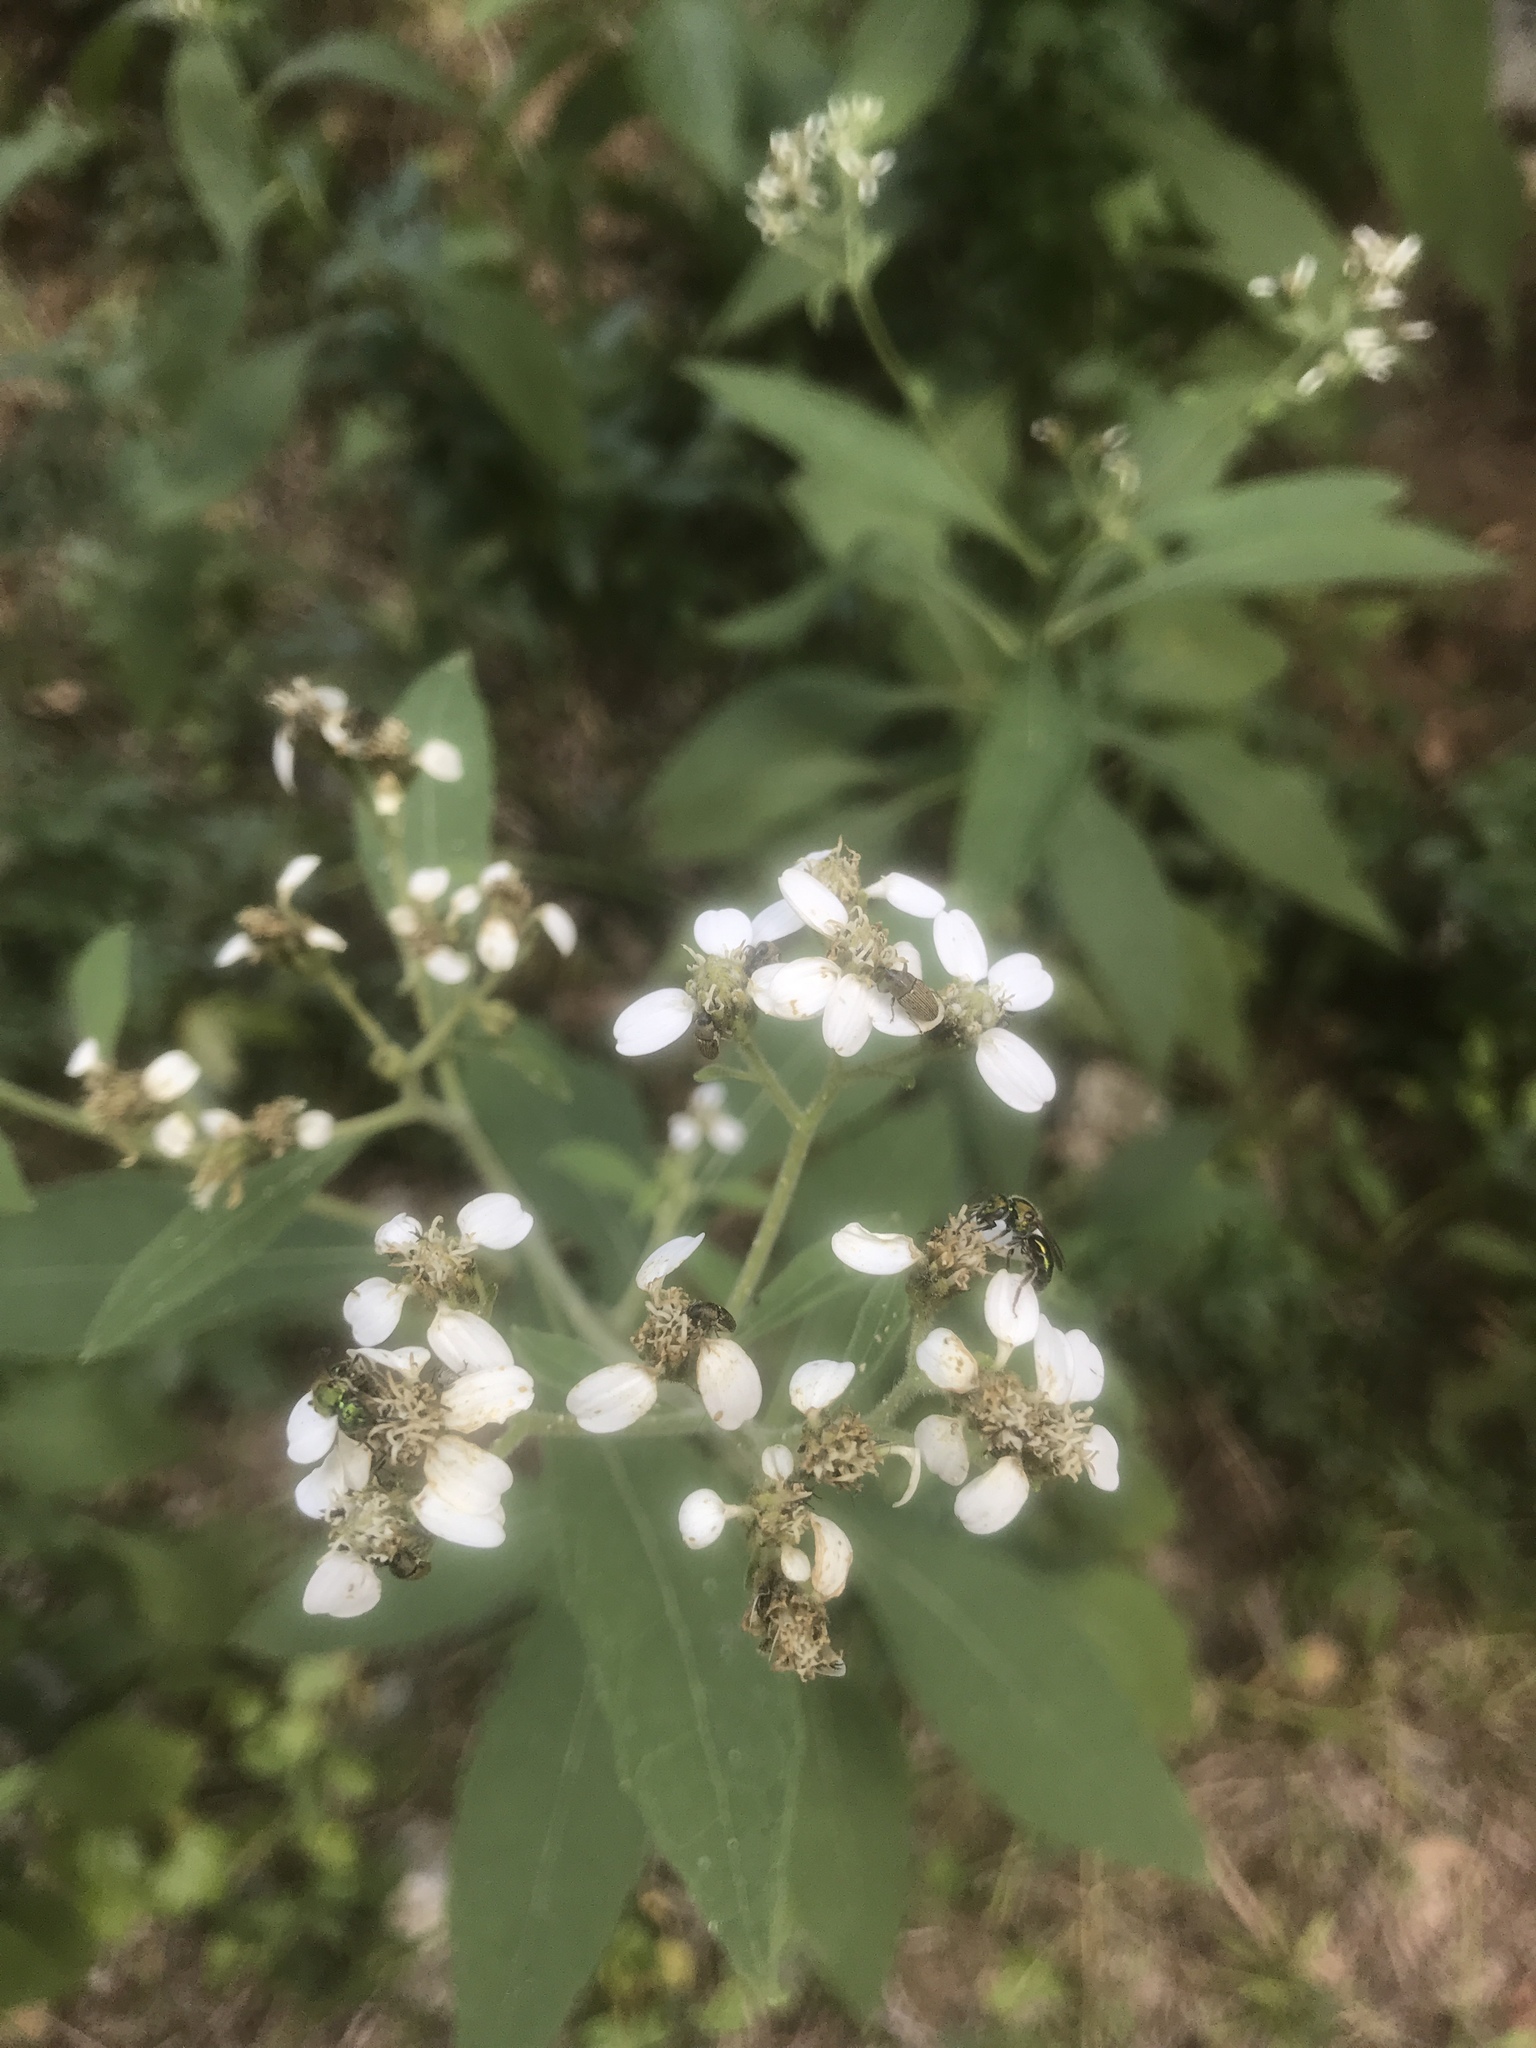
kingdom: Plantae
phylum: Tracheophyta
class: Magnoliopsida
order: Asterales
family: Asteraceae
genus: Verbesina
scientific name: Verbesina virginica
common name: Frostweed
